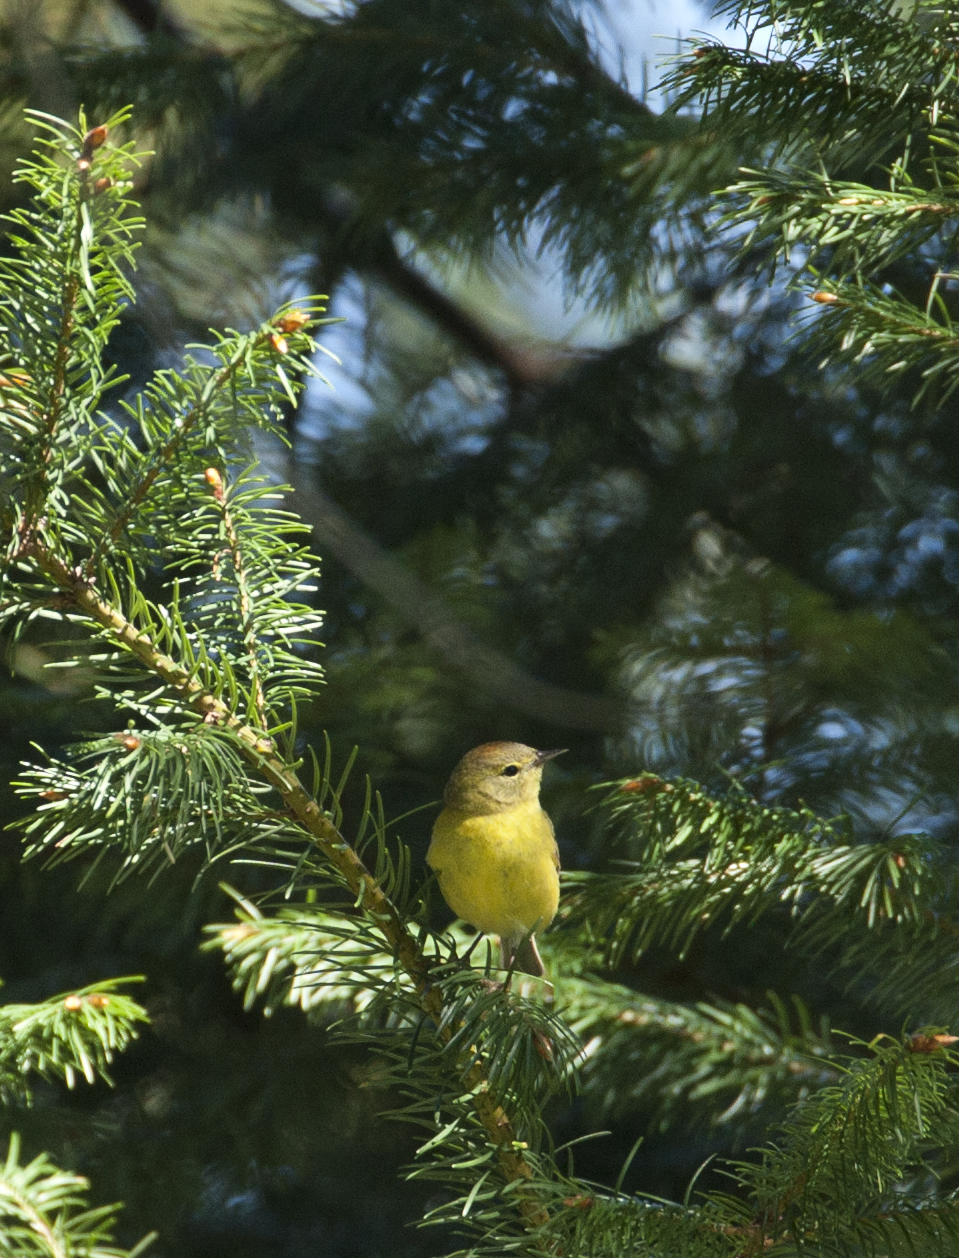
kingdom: Animalia
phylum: Chordata
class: Aves
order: Passeriformes
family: Parulidae
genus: Leiothlypis
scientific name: Leiothlypis celata
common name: Orange-crowned warbler
